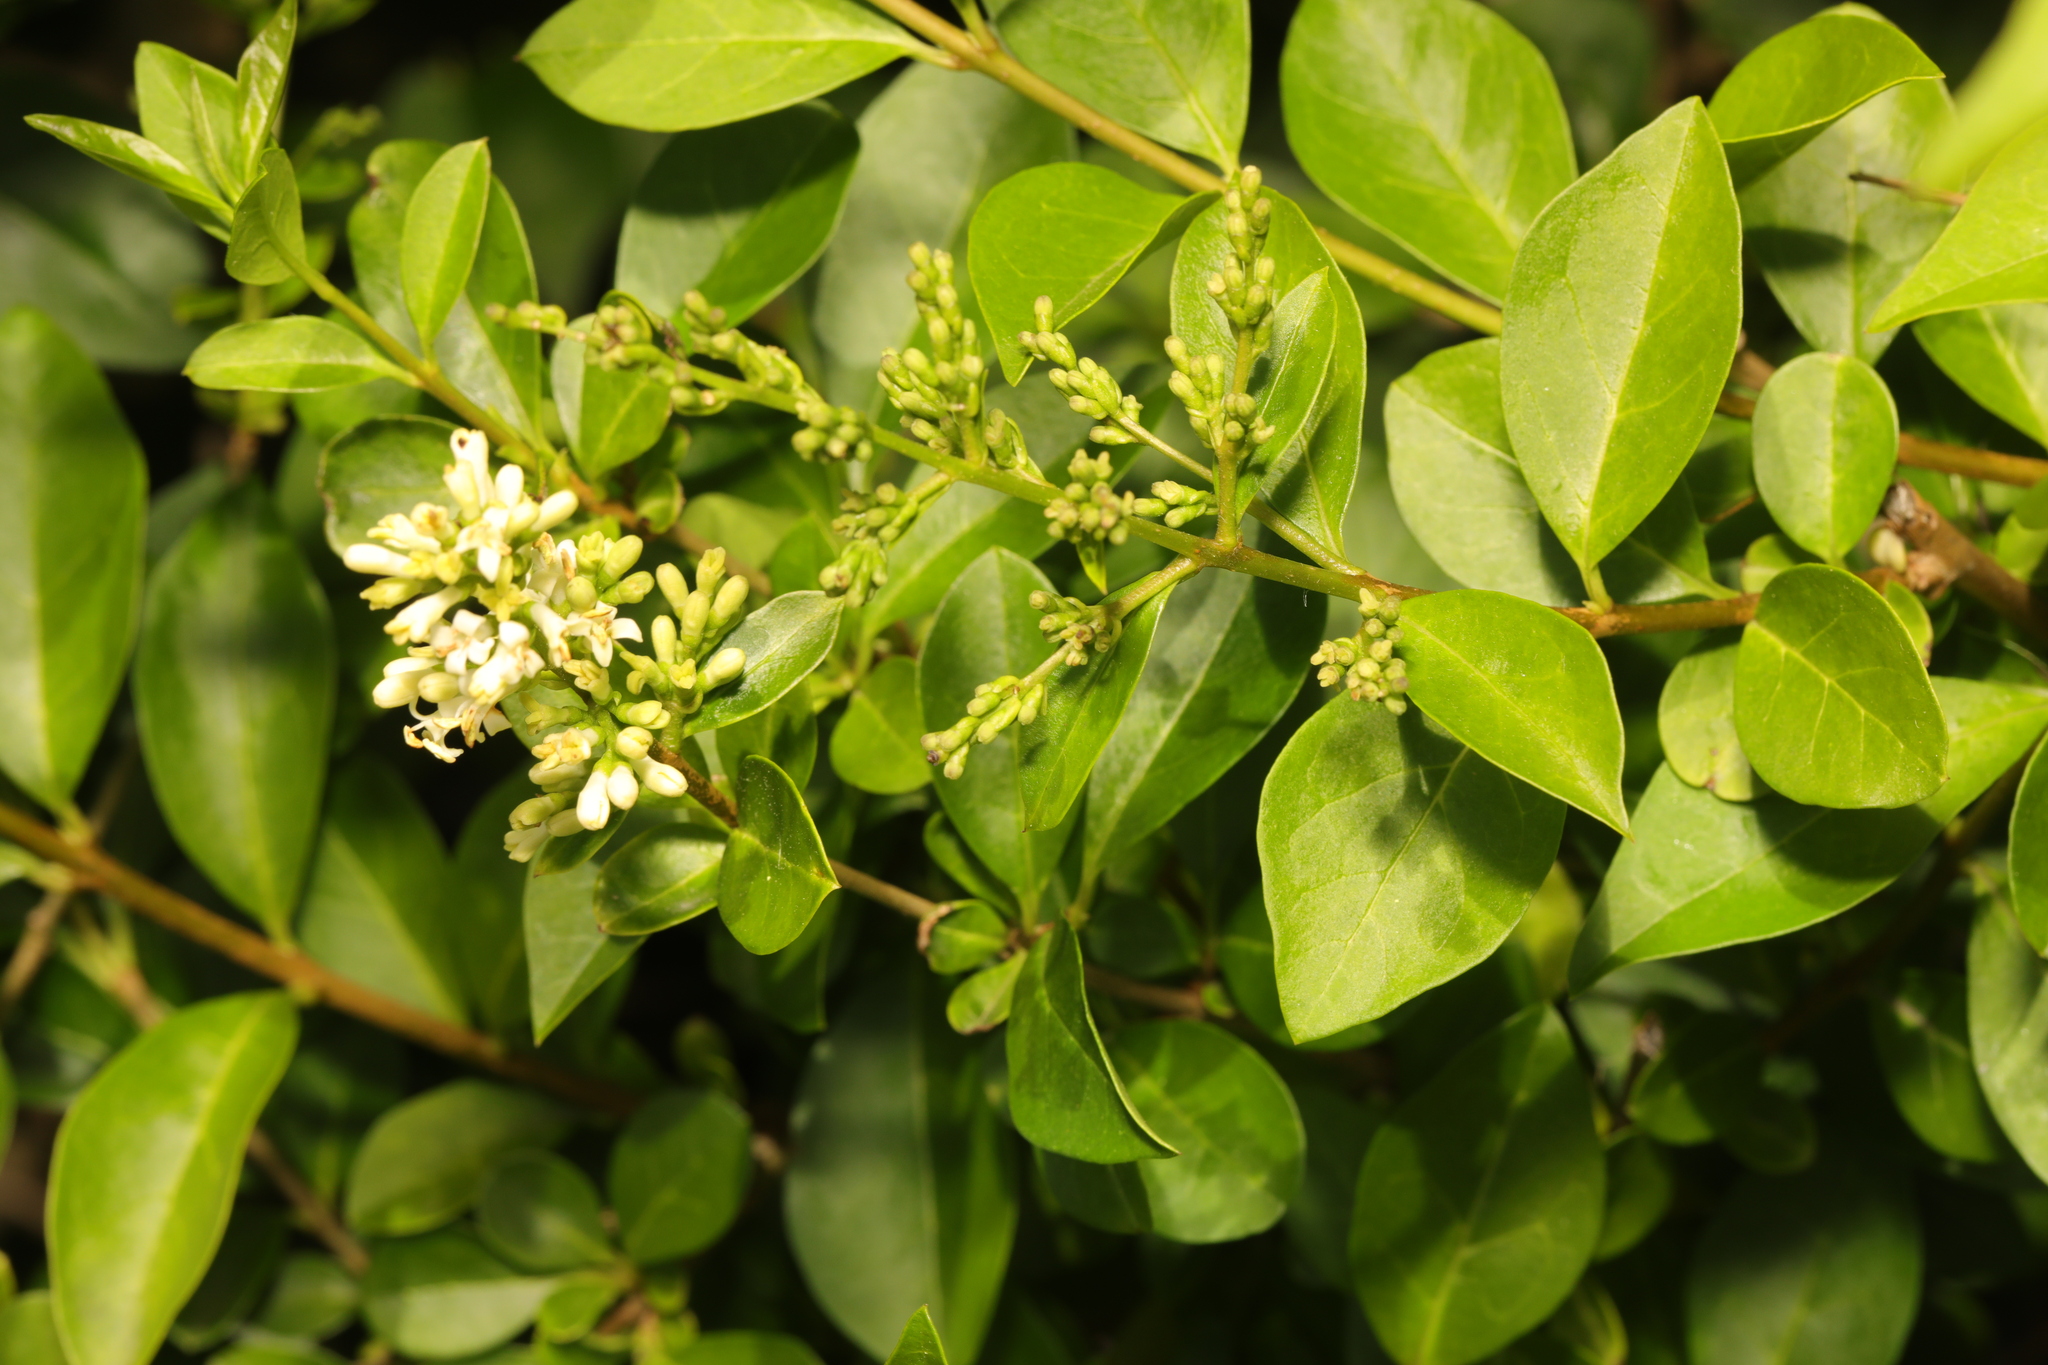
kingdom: Plantae
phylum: Tracheophyta
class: Magnoliopsida
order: Lamiales
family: Oleaceae
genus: Ligustrum
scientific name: Ligustrum ovalifolium
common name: California privet
